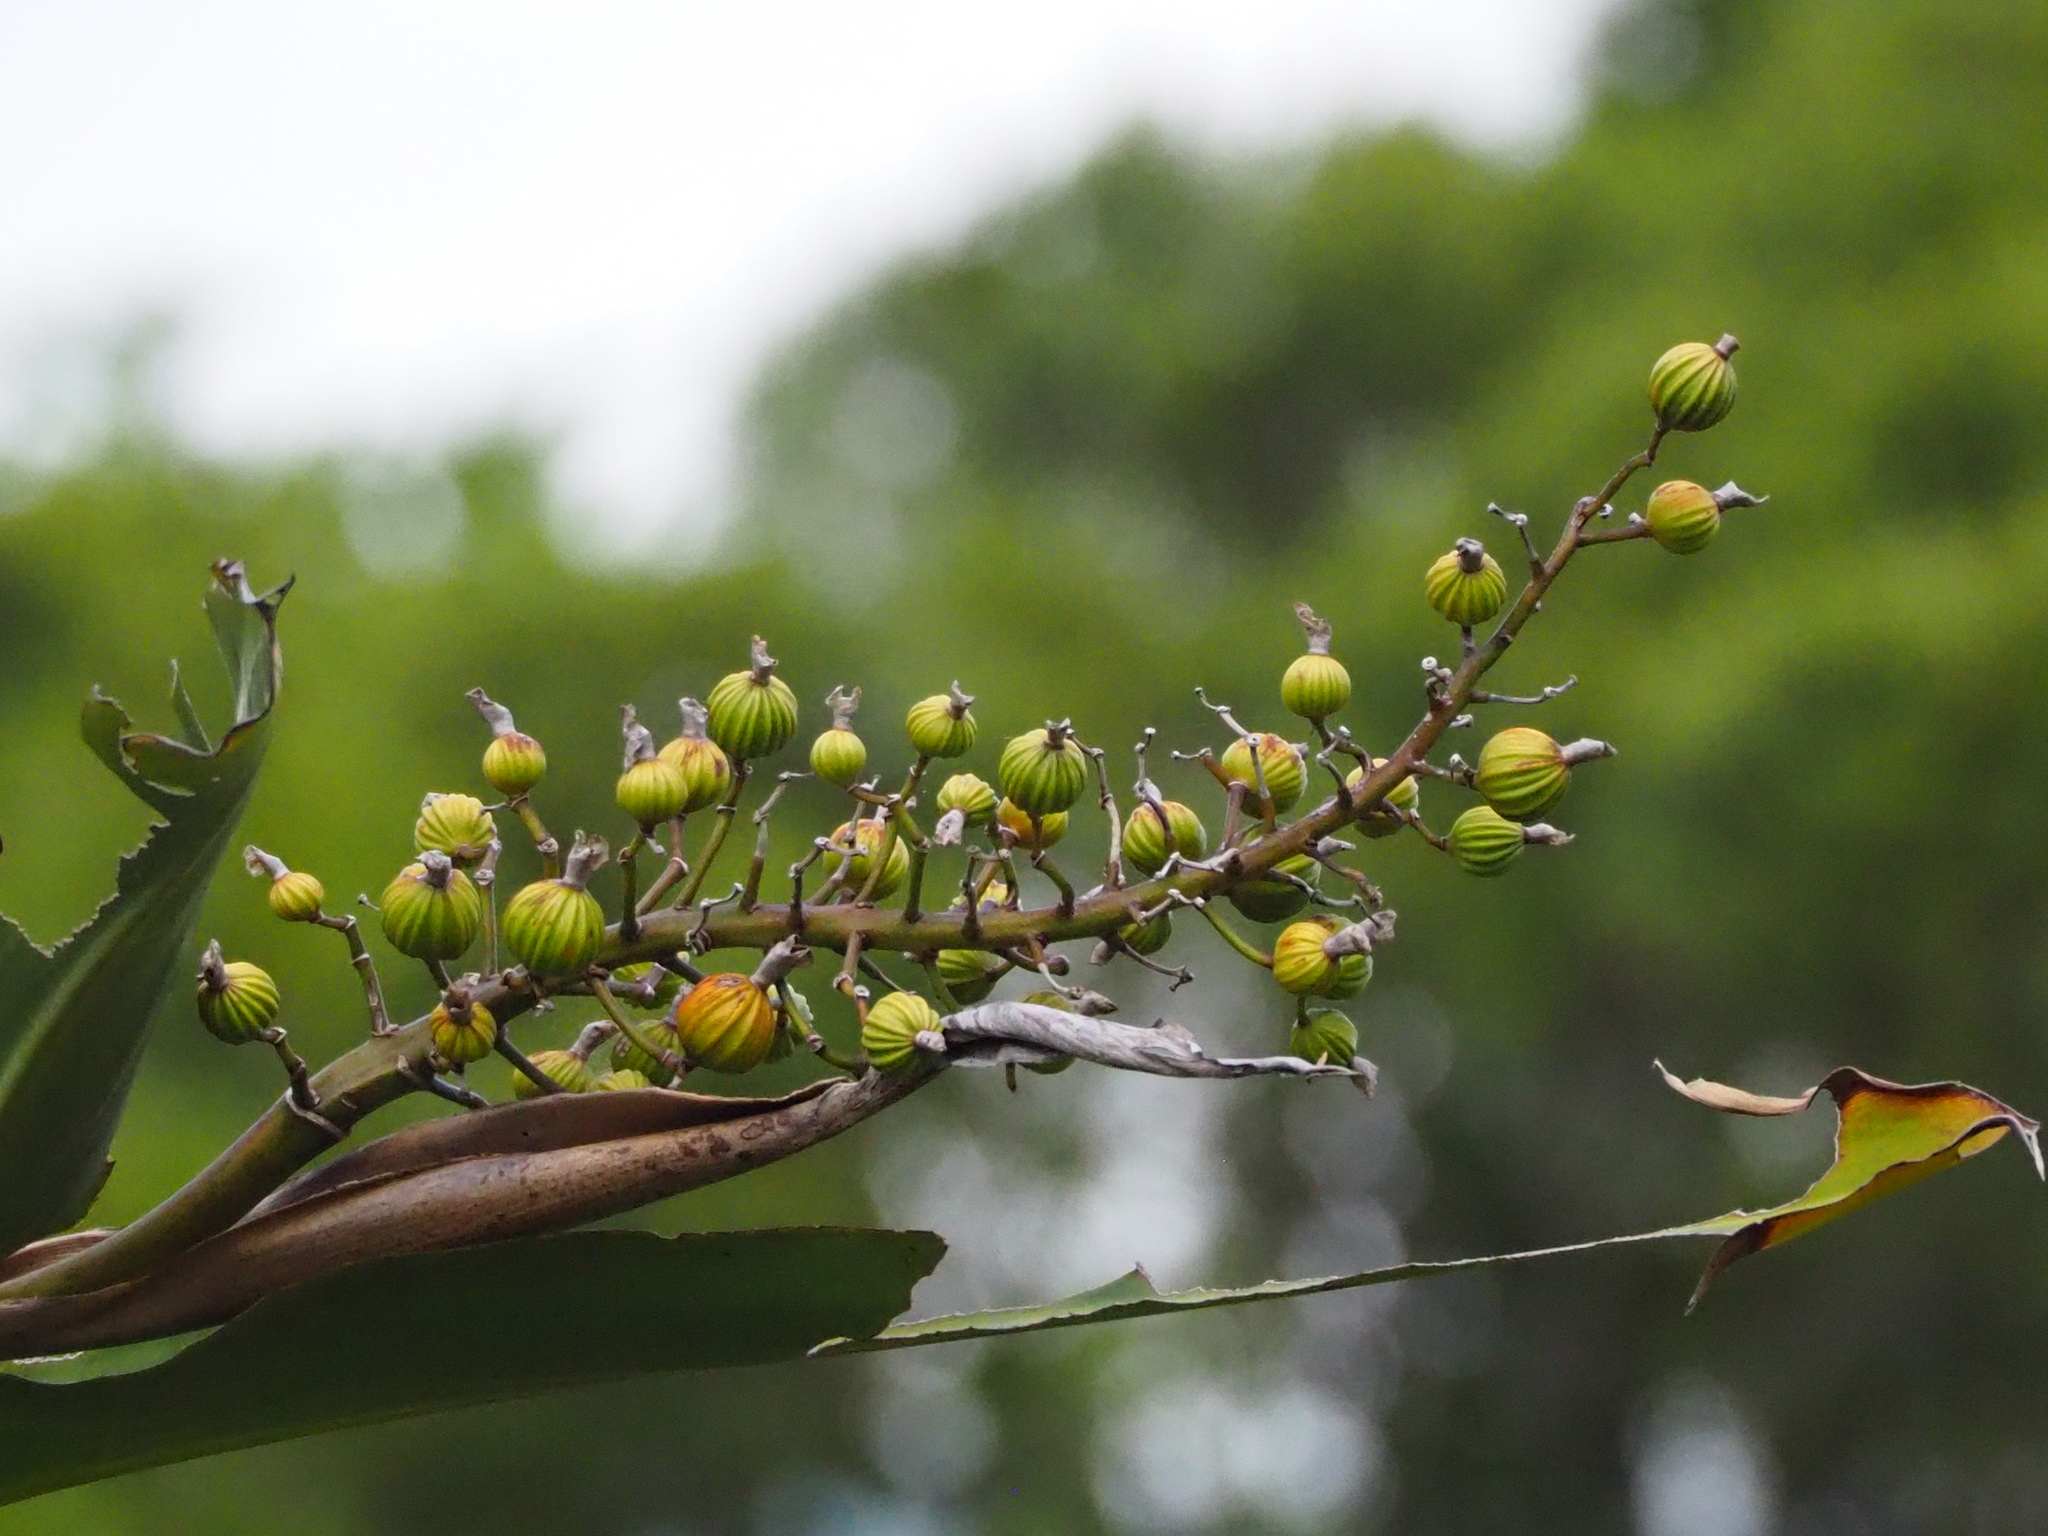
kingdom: Plantae
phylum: Tracheophyta
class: Liliopsida
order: Zingiberales
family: Zingiberaceae
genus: Alpinia
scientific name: Alpinia koshunensis
